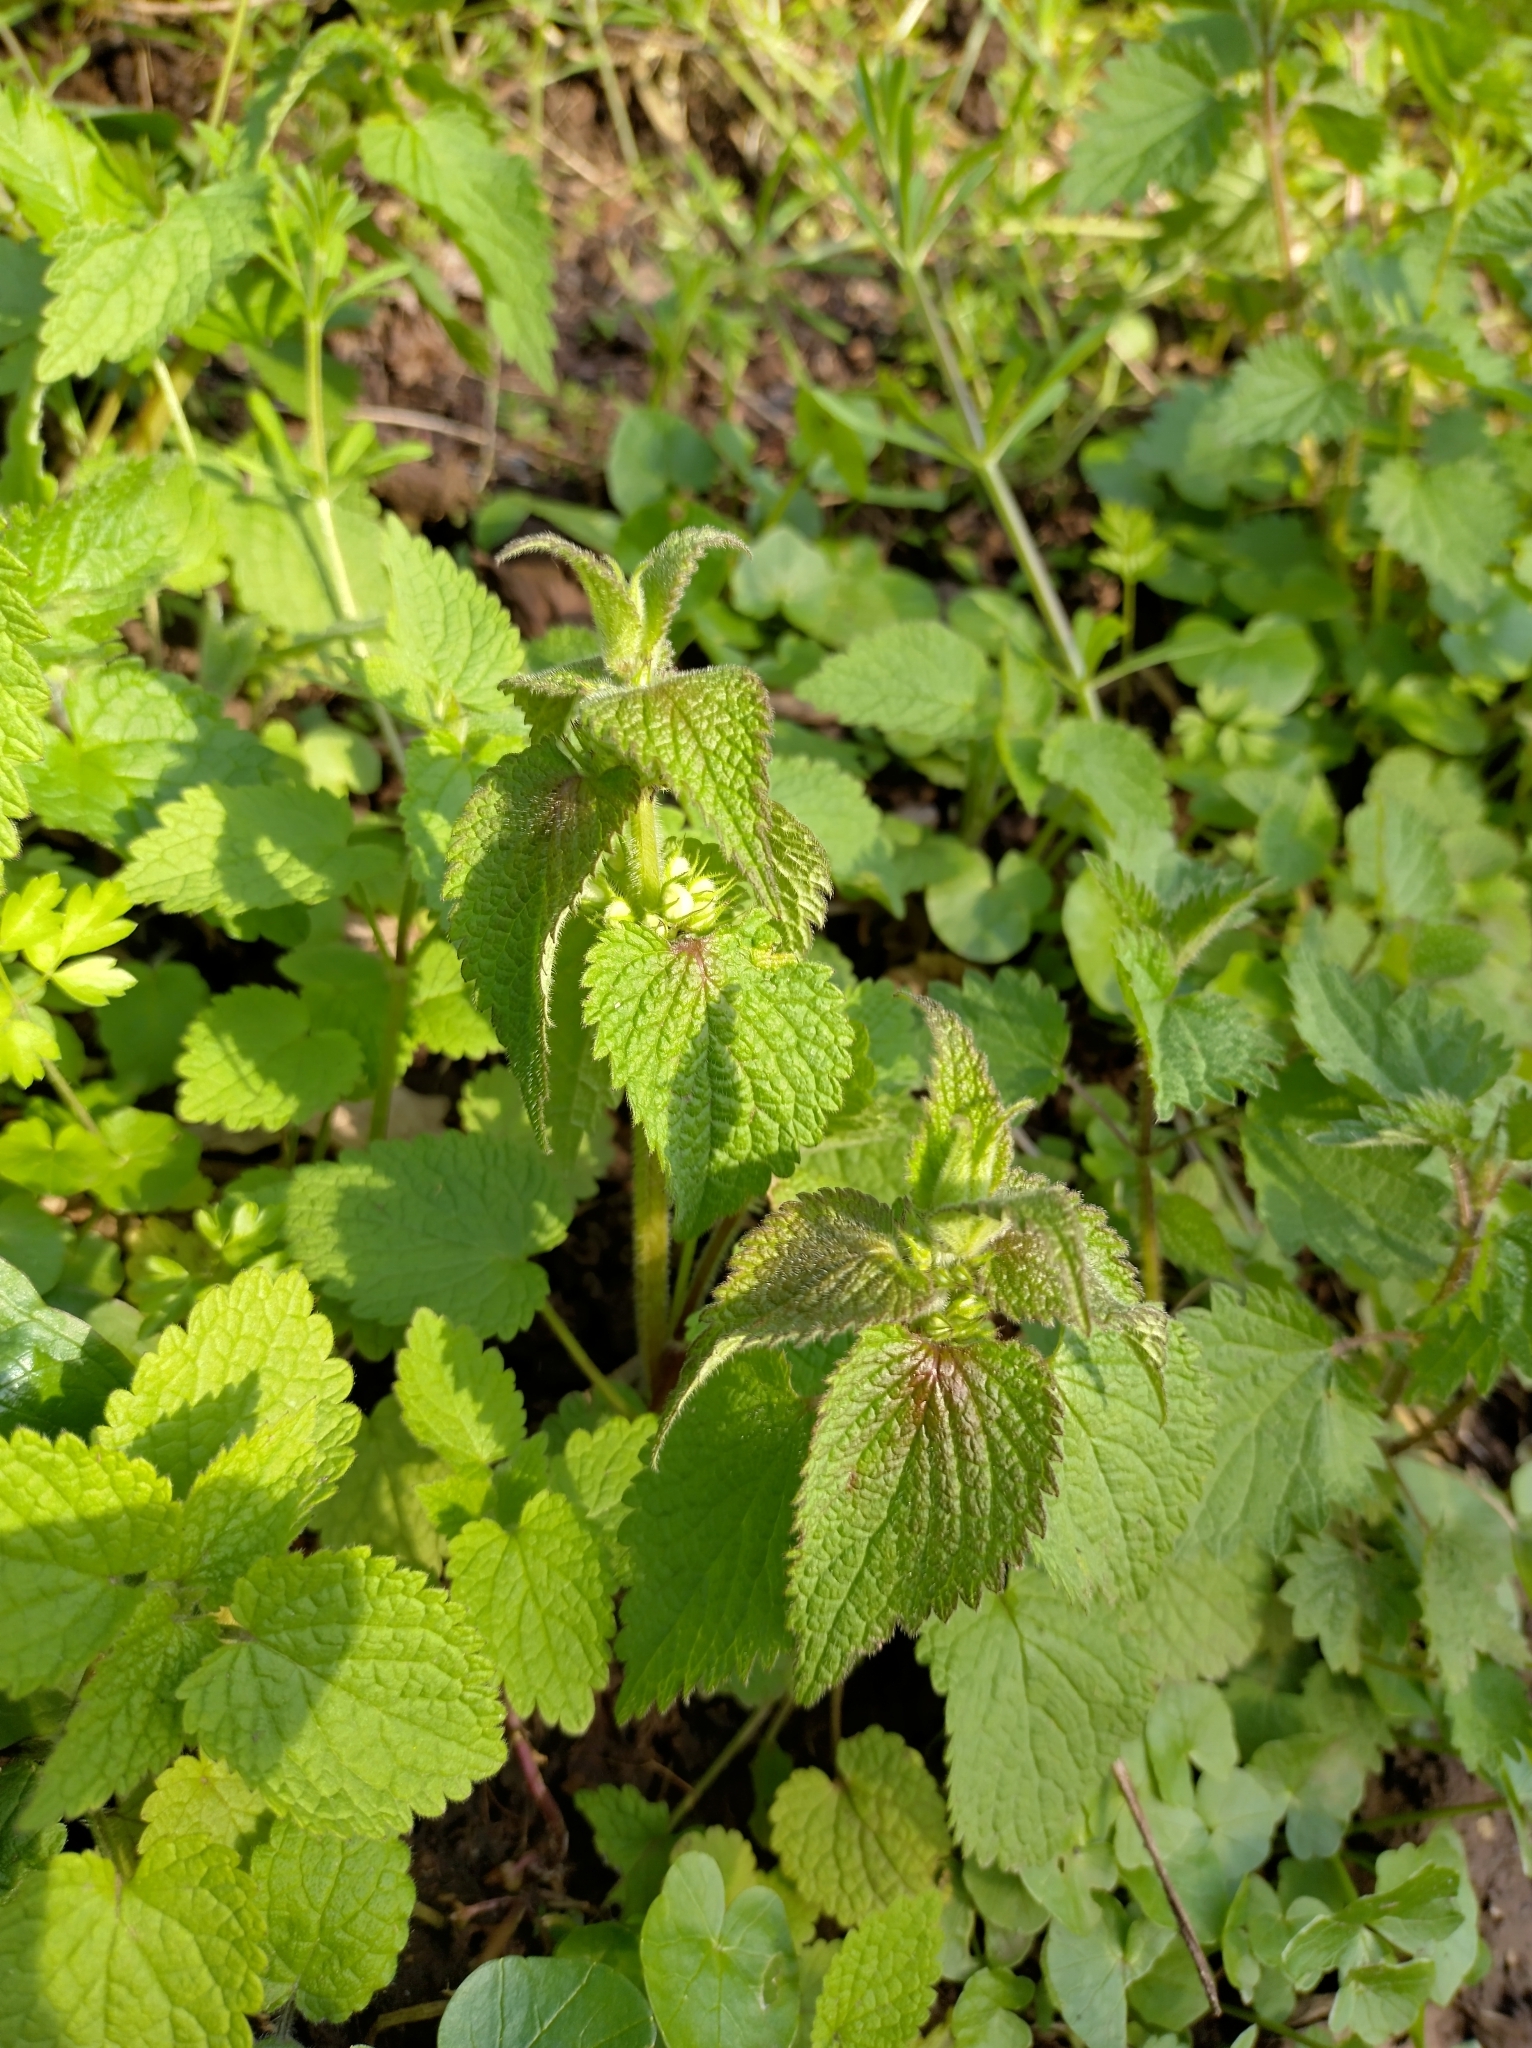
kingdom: Plantae
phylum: Tracheophyta
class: Magnoliopsida
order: Lamiales
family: Lamiaceae
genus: Lamium
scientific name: Lamium album
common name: White dead-nettle
